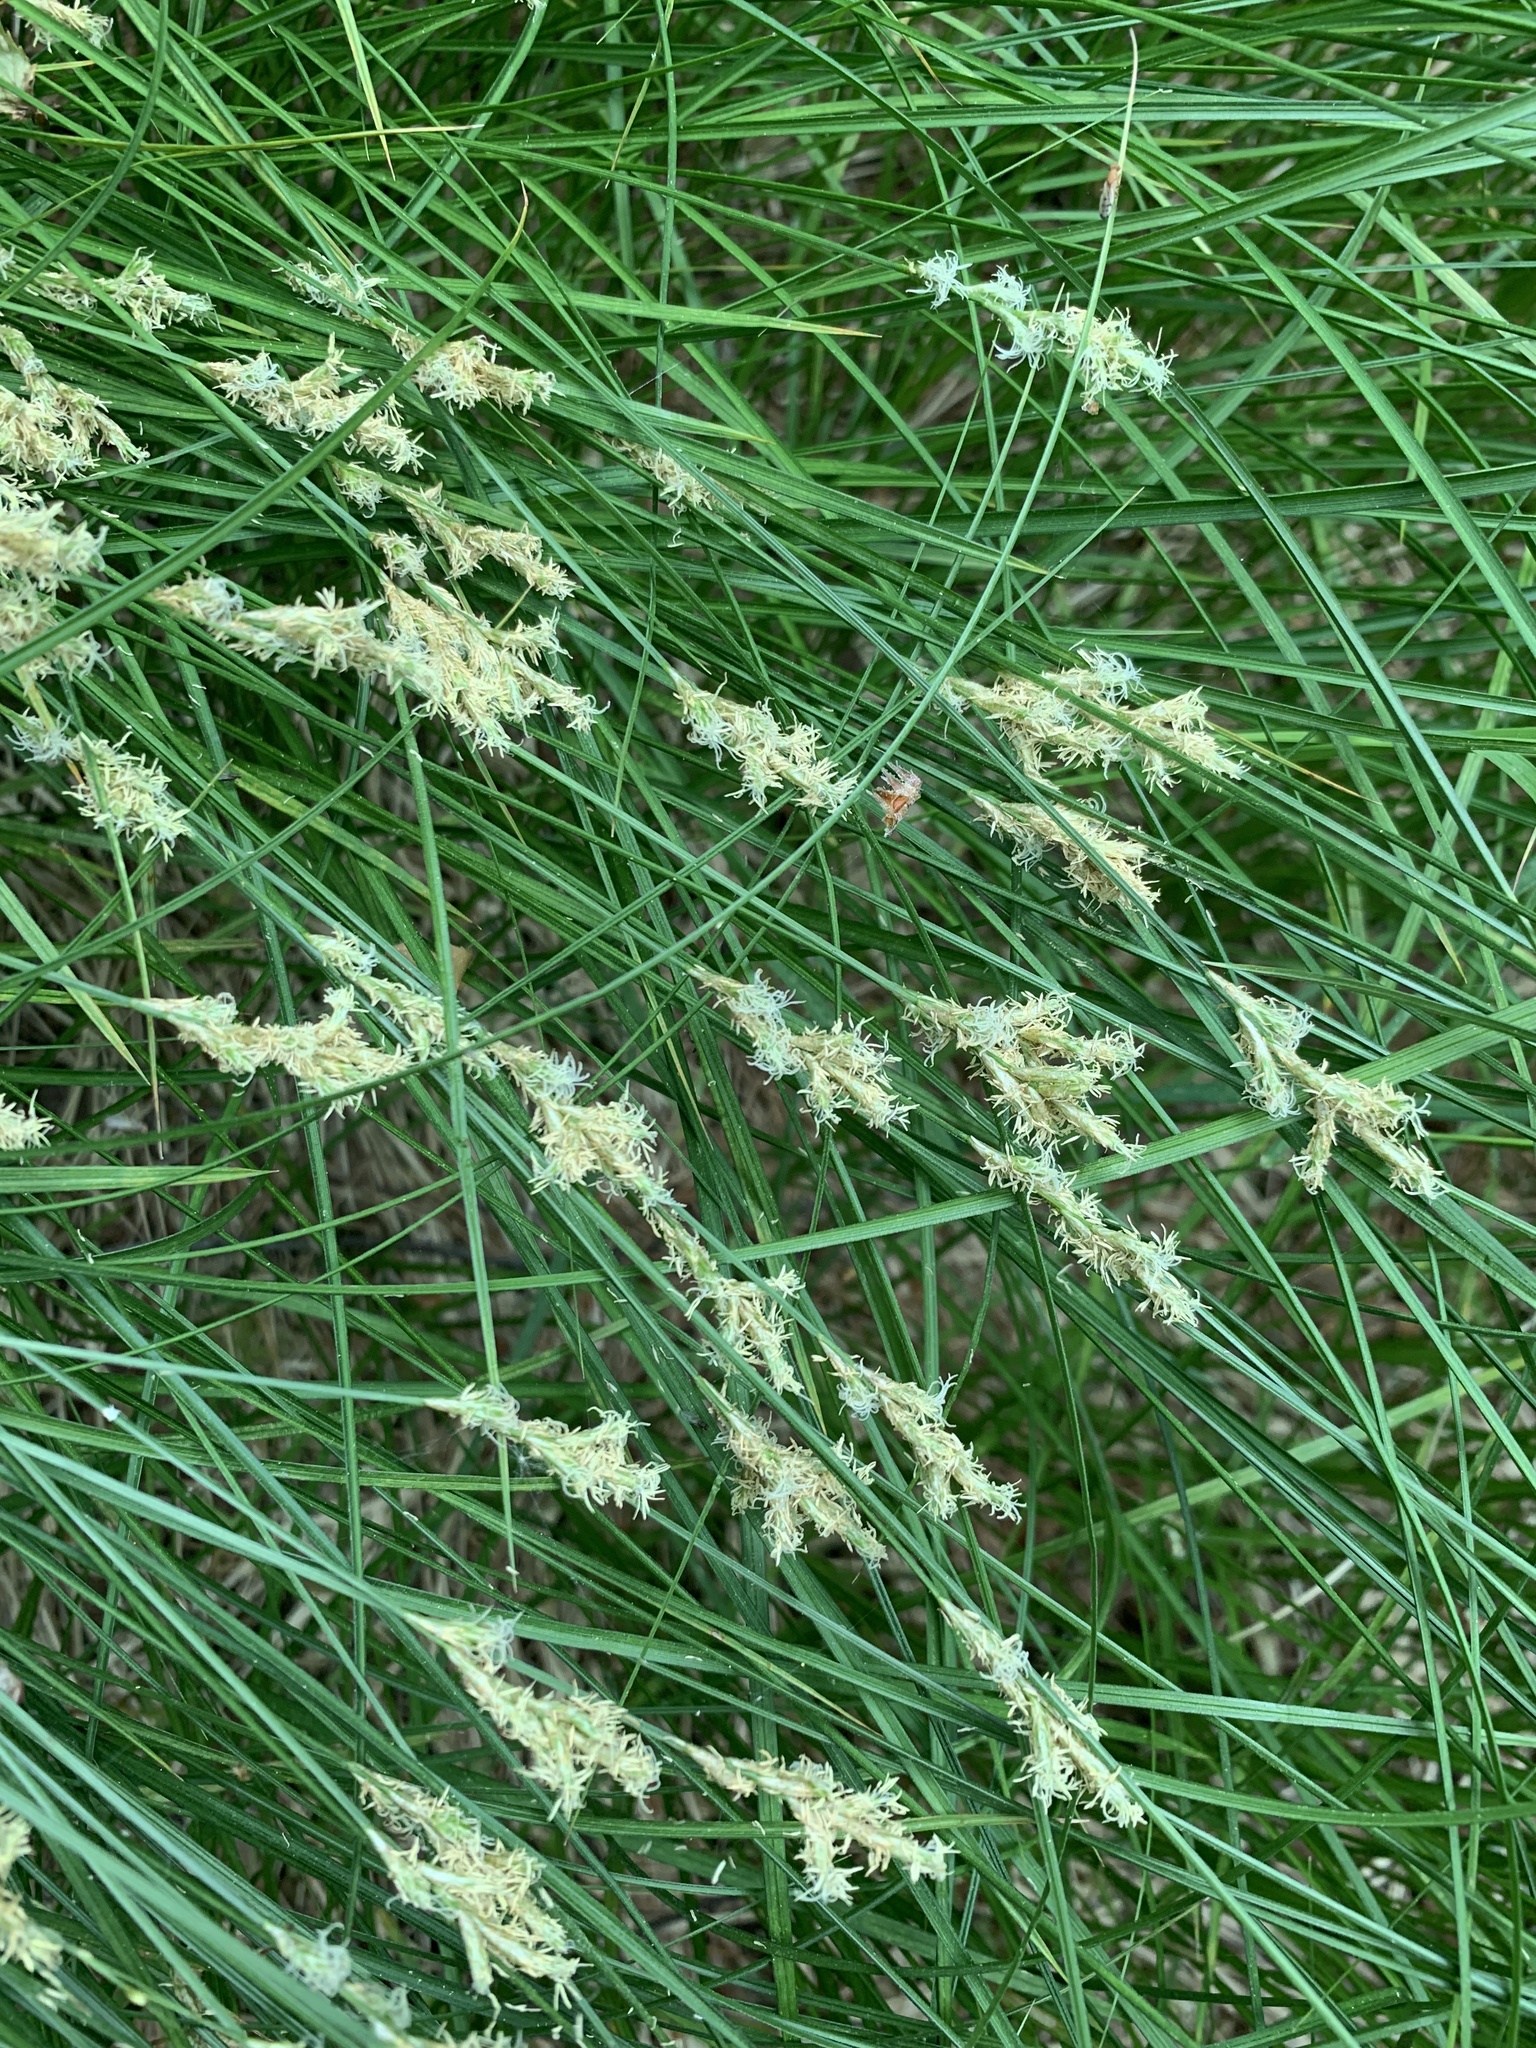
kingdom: Plantae
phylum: Tracheophyta
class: Liliopsida
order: Poales
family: Cyperaceae
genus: Carex
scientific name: Carex brizoides
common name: Quaking-grass sedge
